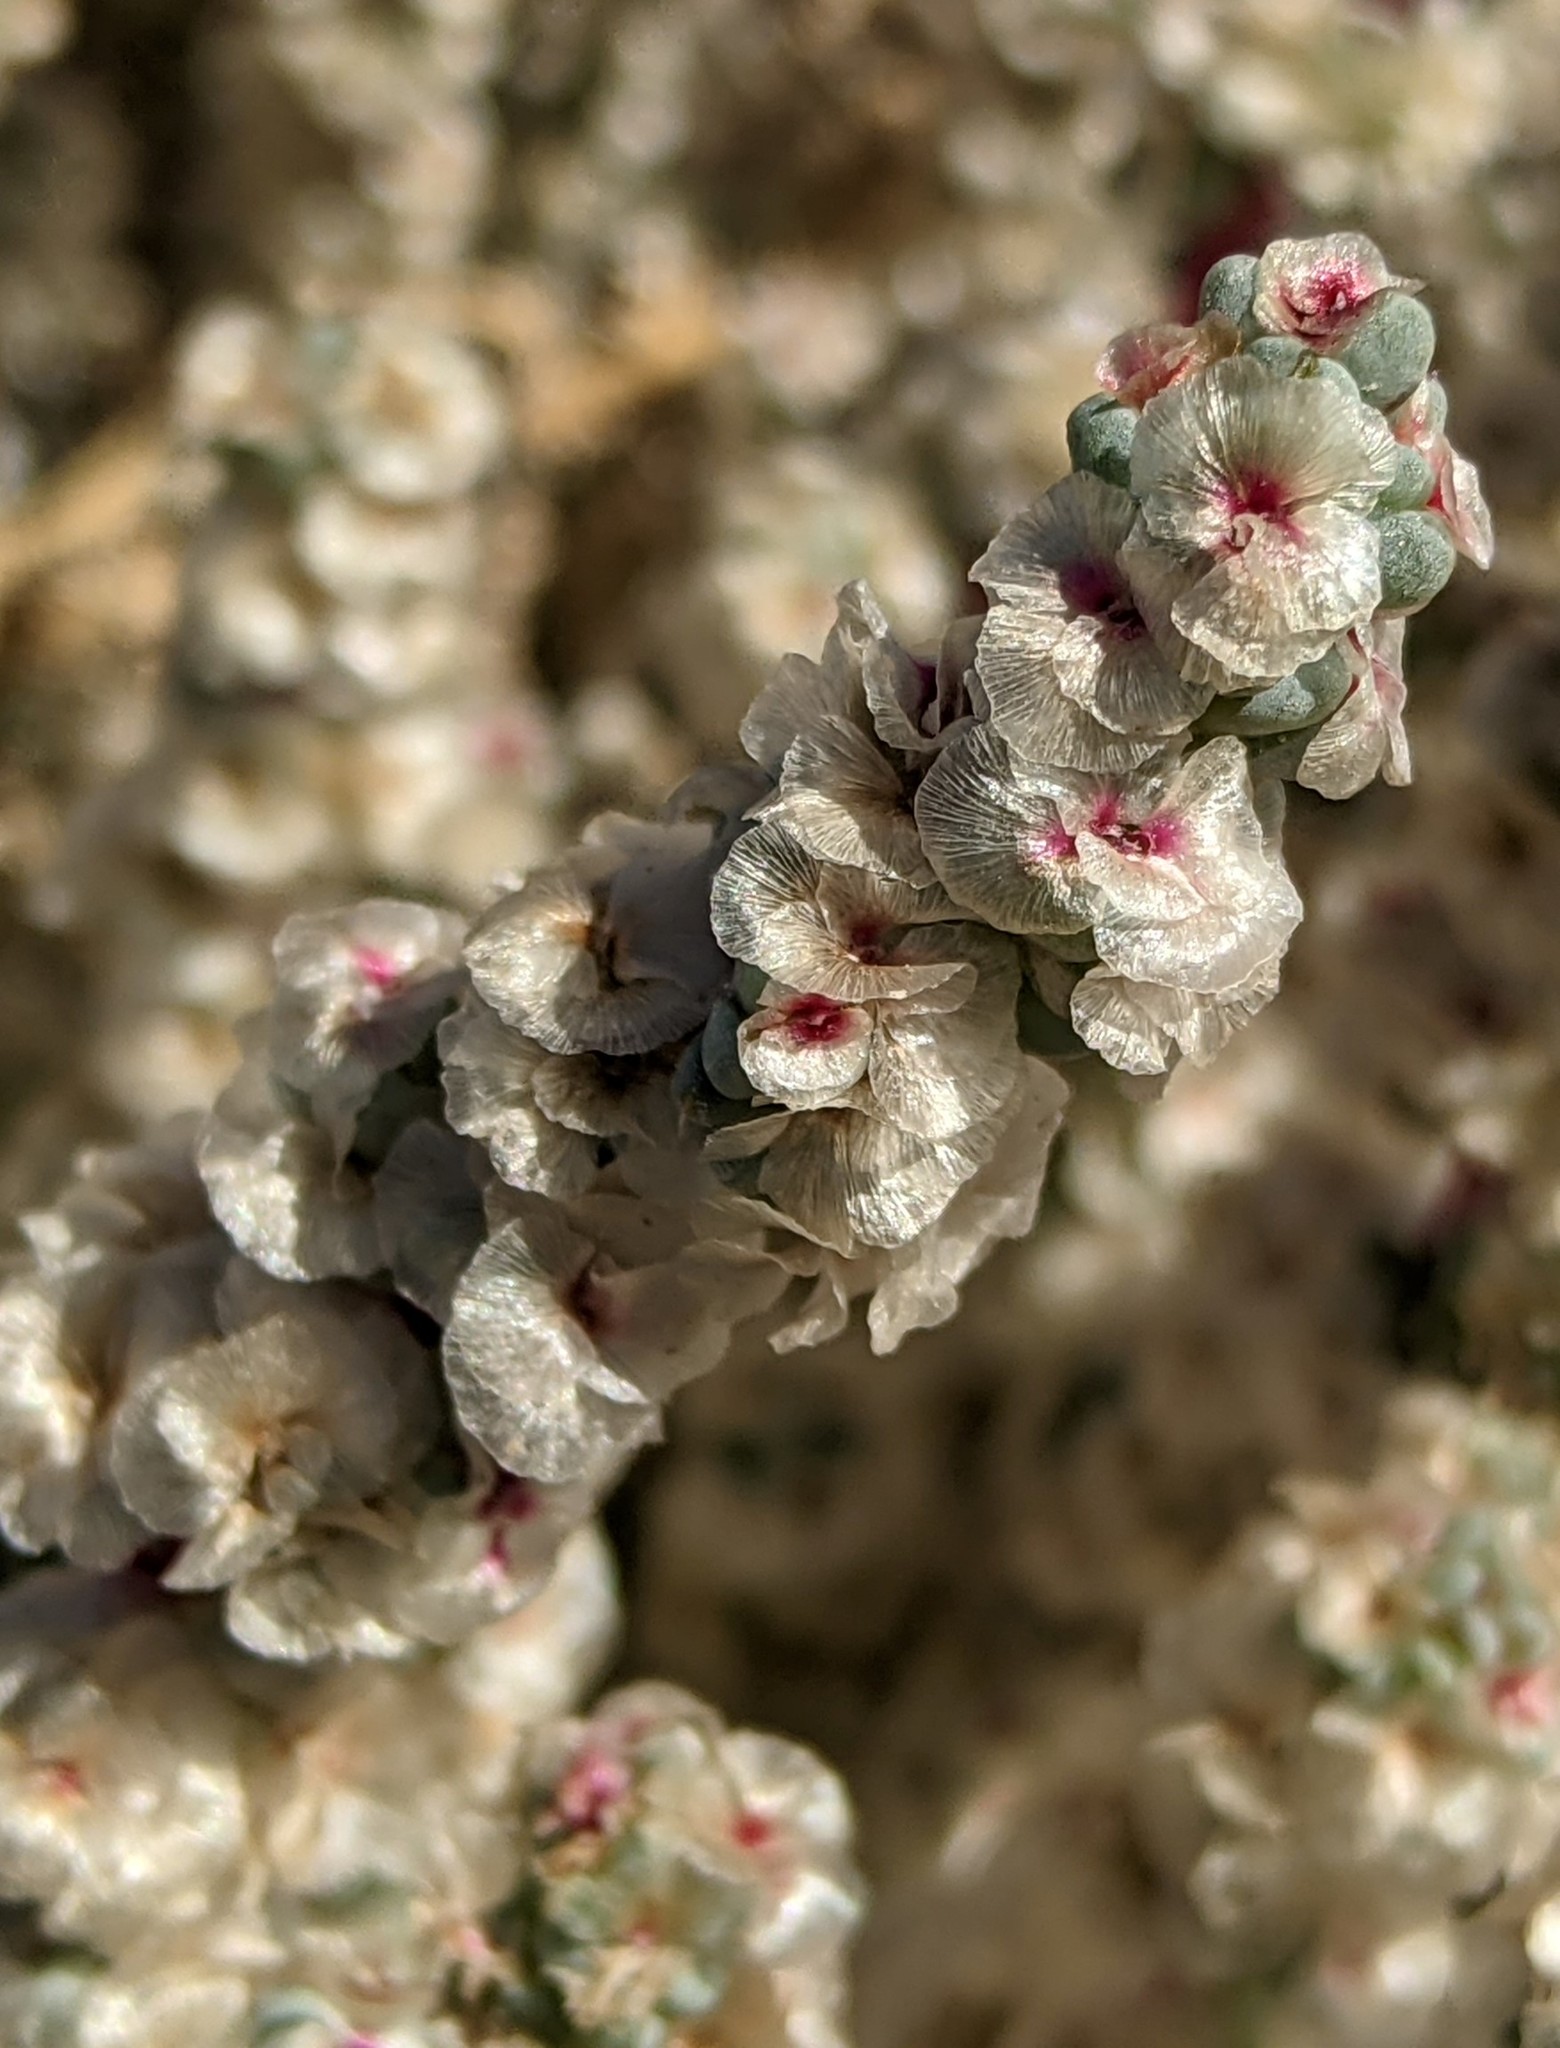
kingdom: Plantae
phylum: Tracheophyta
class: Magnoliopsida
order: Caryophyllales
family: Amaranthaceae
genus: Halogeton
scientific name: Halogeton glomeratus
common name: Saltlover
